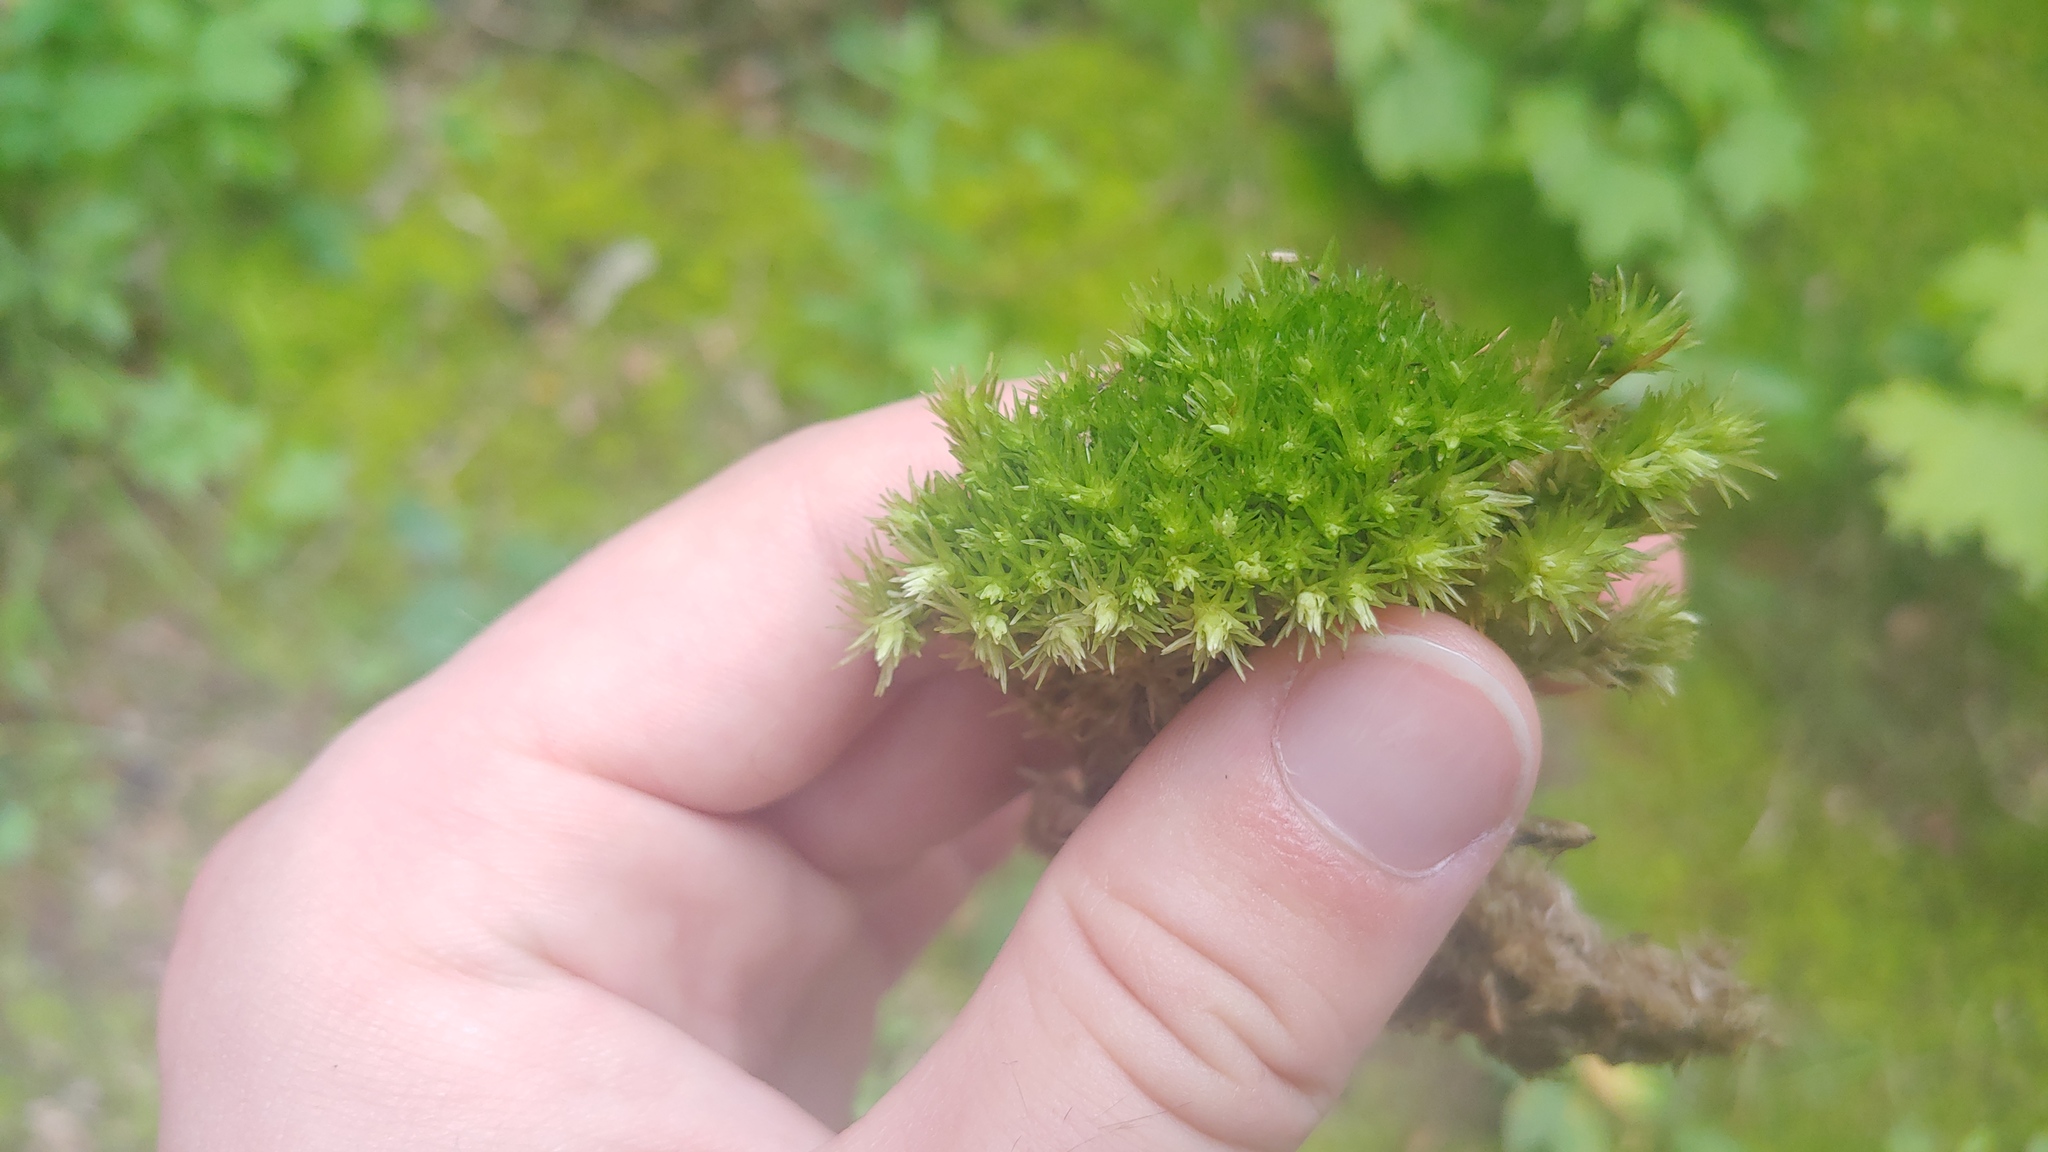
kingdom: Plantae
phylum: Bryophyta
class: Bryopsida
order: Dicranales
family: Leucobryaceae
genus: Leucobryum
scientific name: Leucobryum glaucum
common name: Large white-moss
